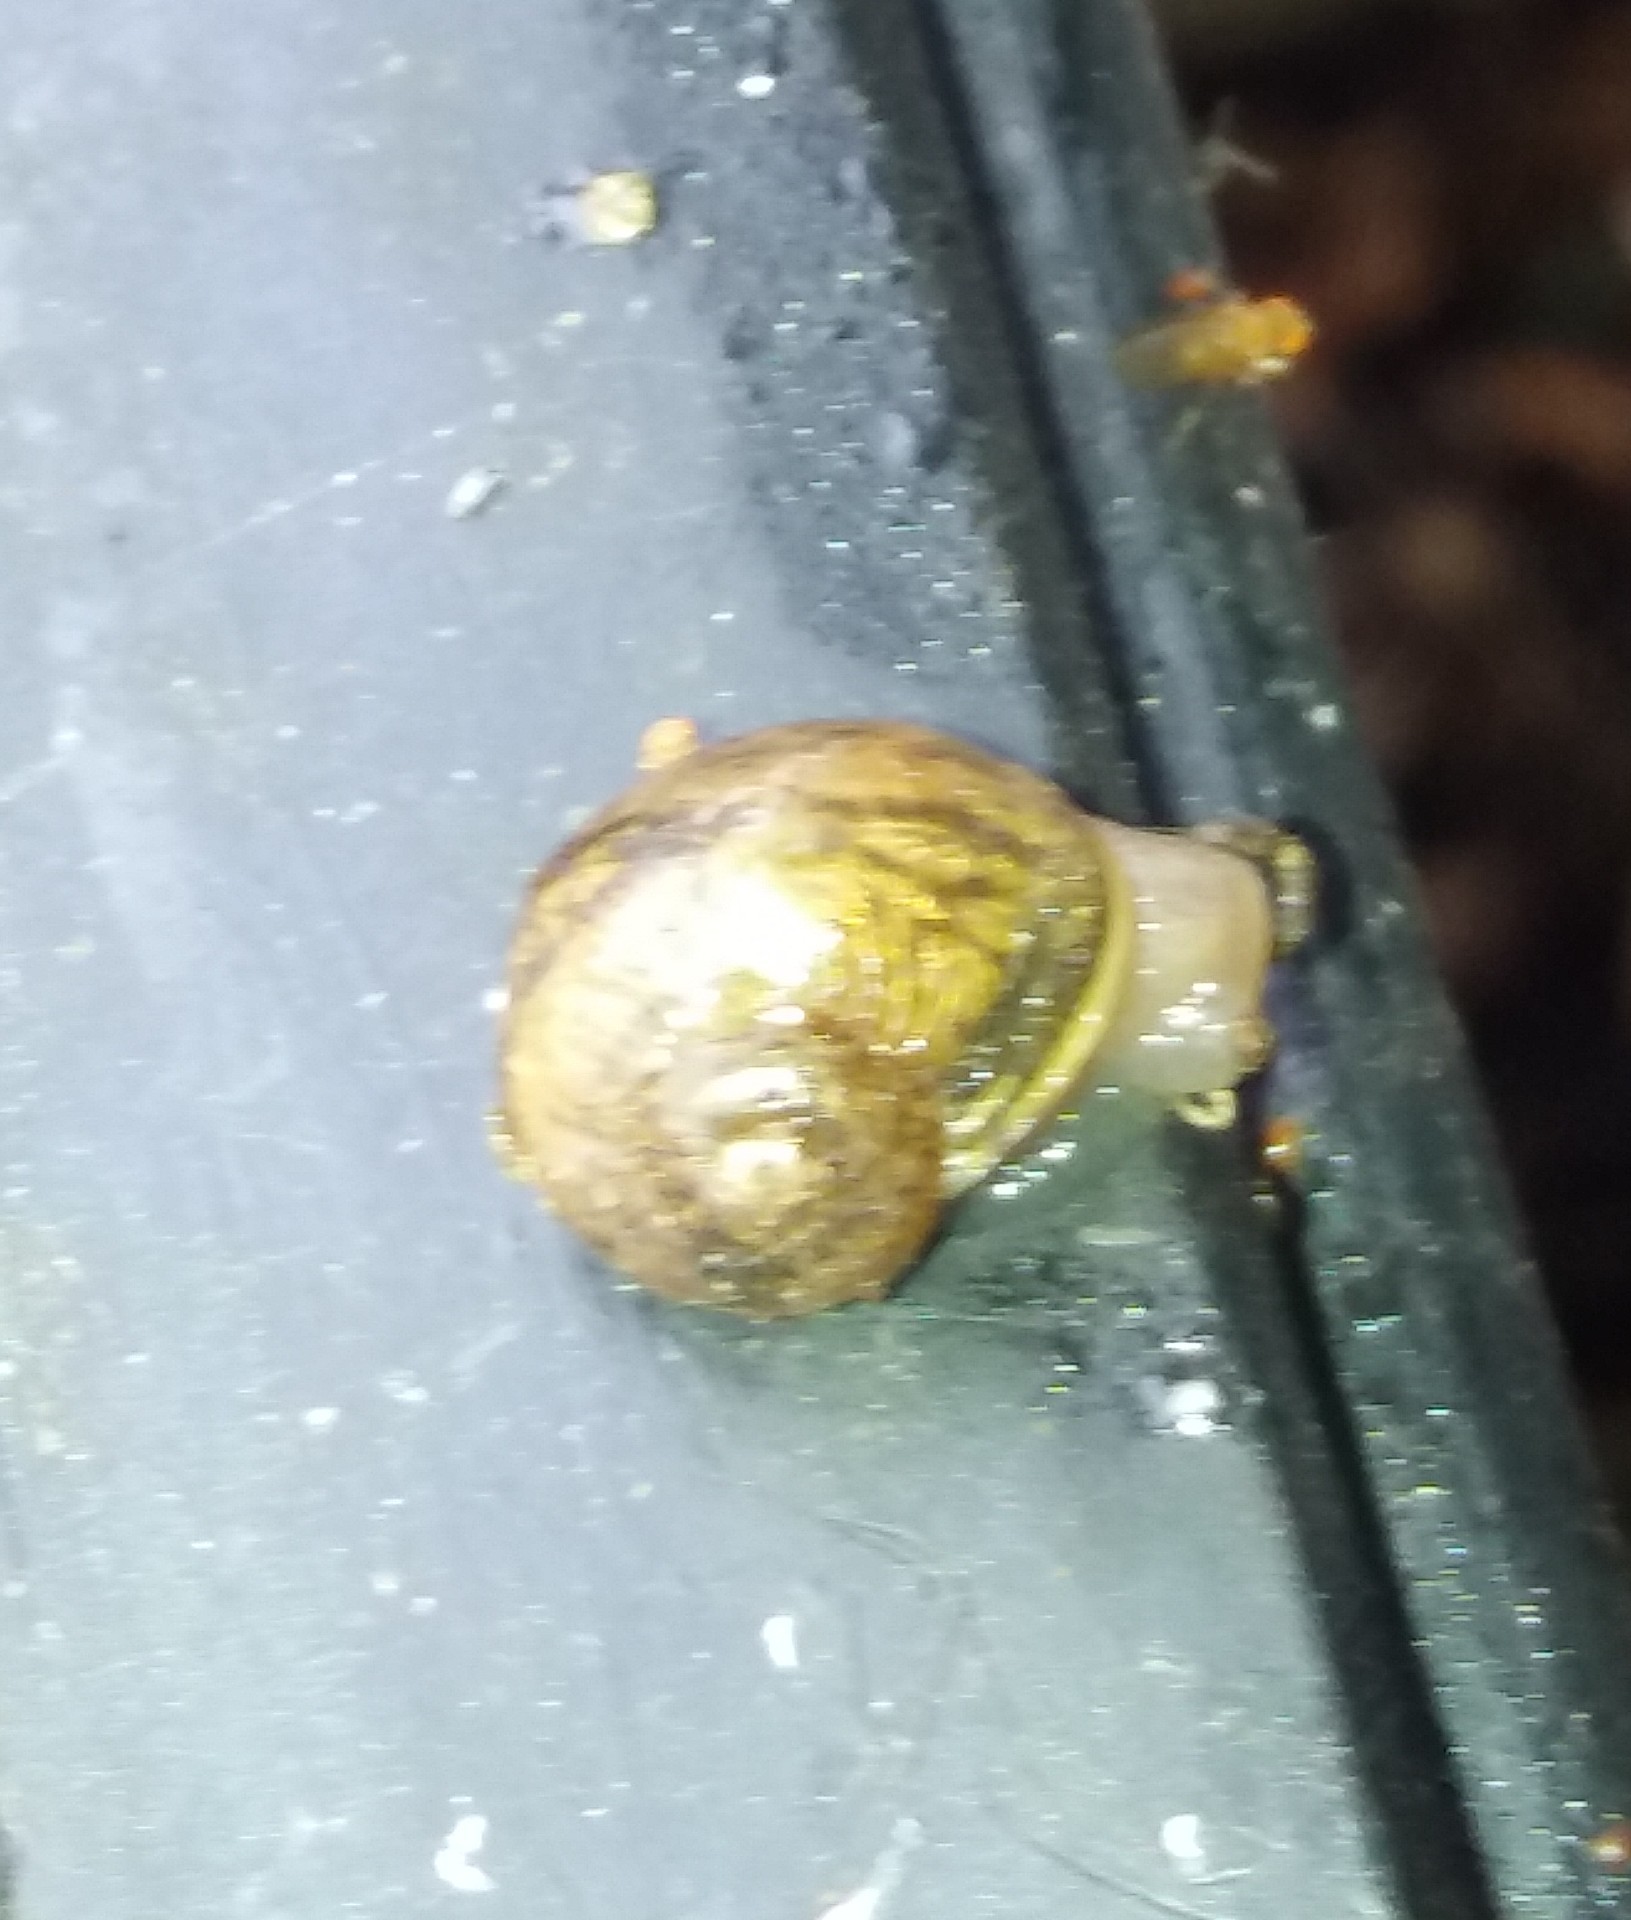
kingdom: Animalia
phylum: Mollusca
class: Gastropoda
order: Stylommatophora
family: Helicidae
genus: Cornu
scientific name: Cornu aspersum
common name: Brown garden snail
